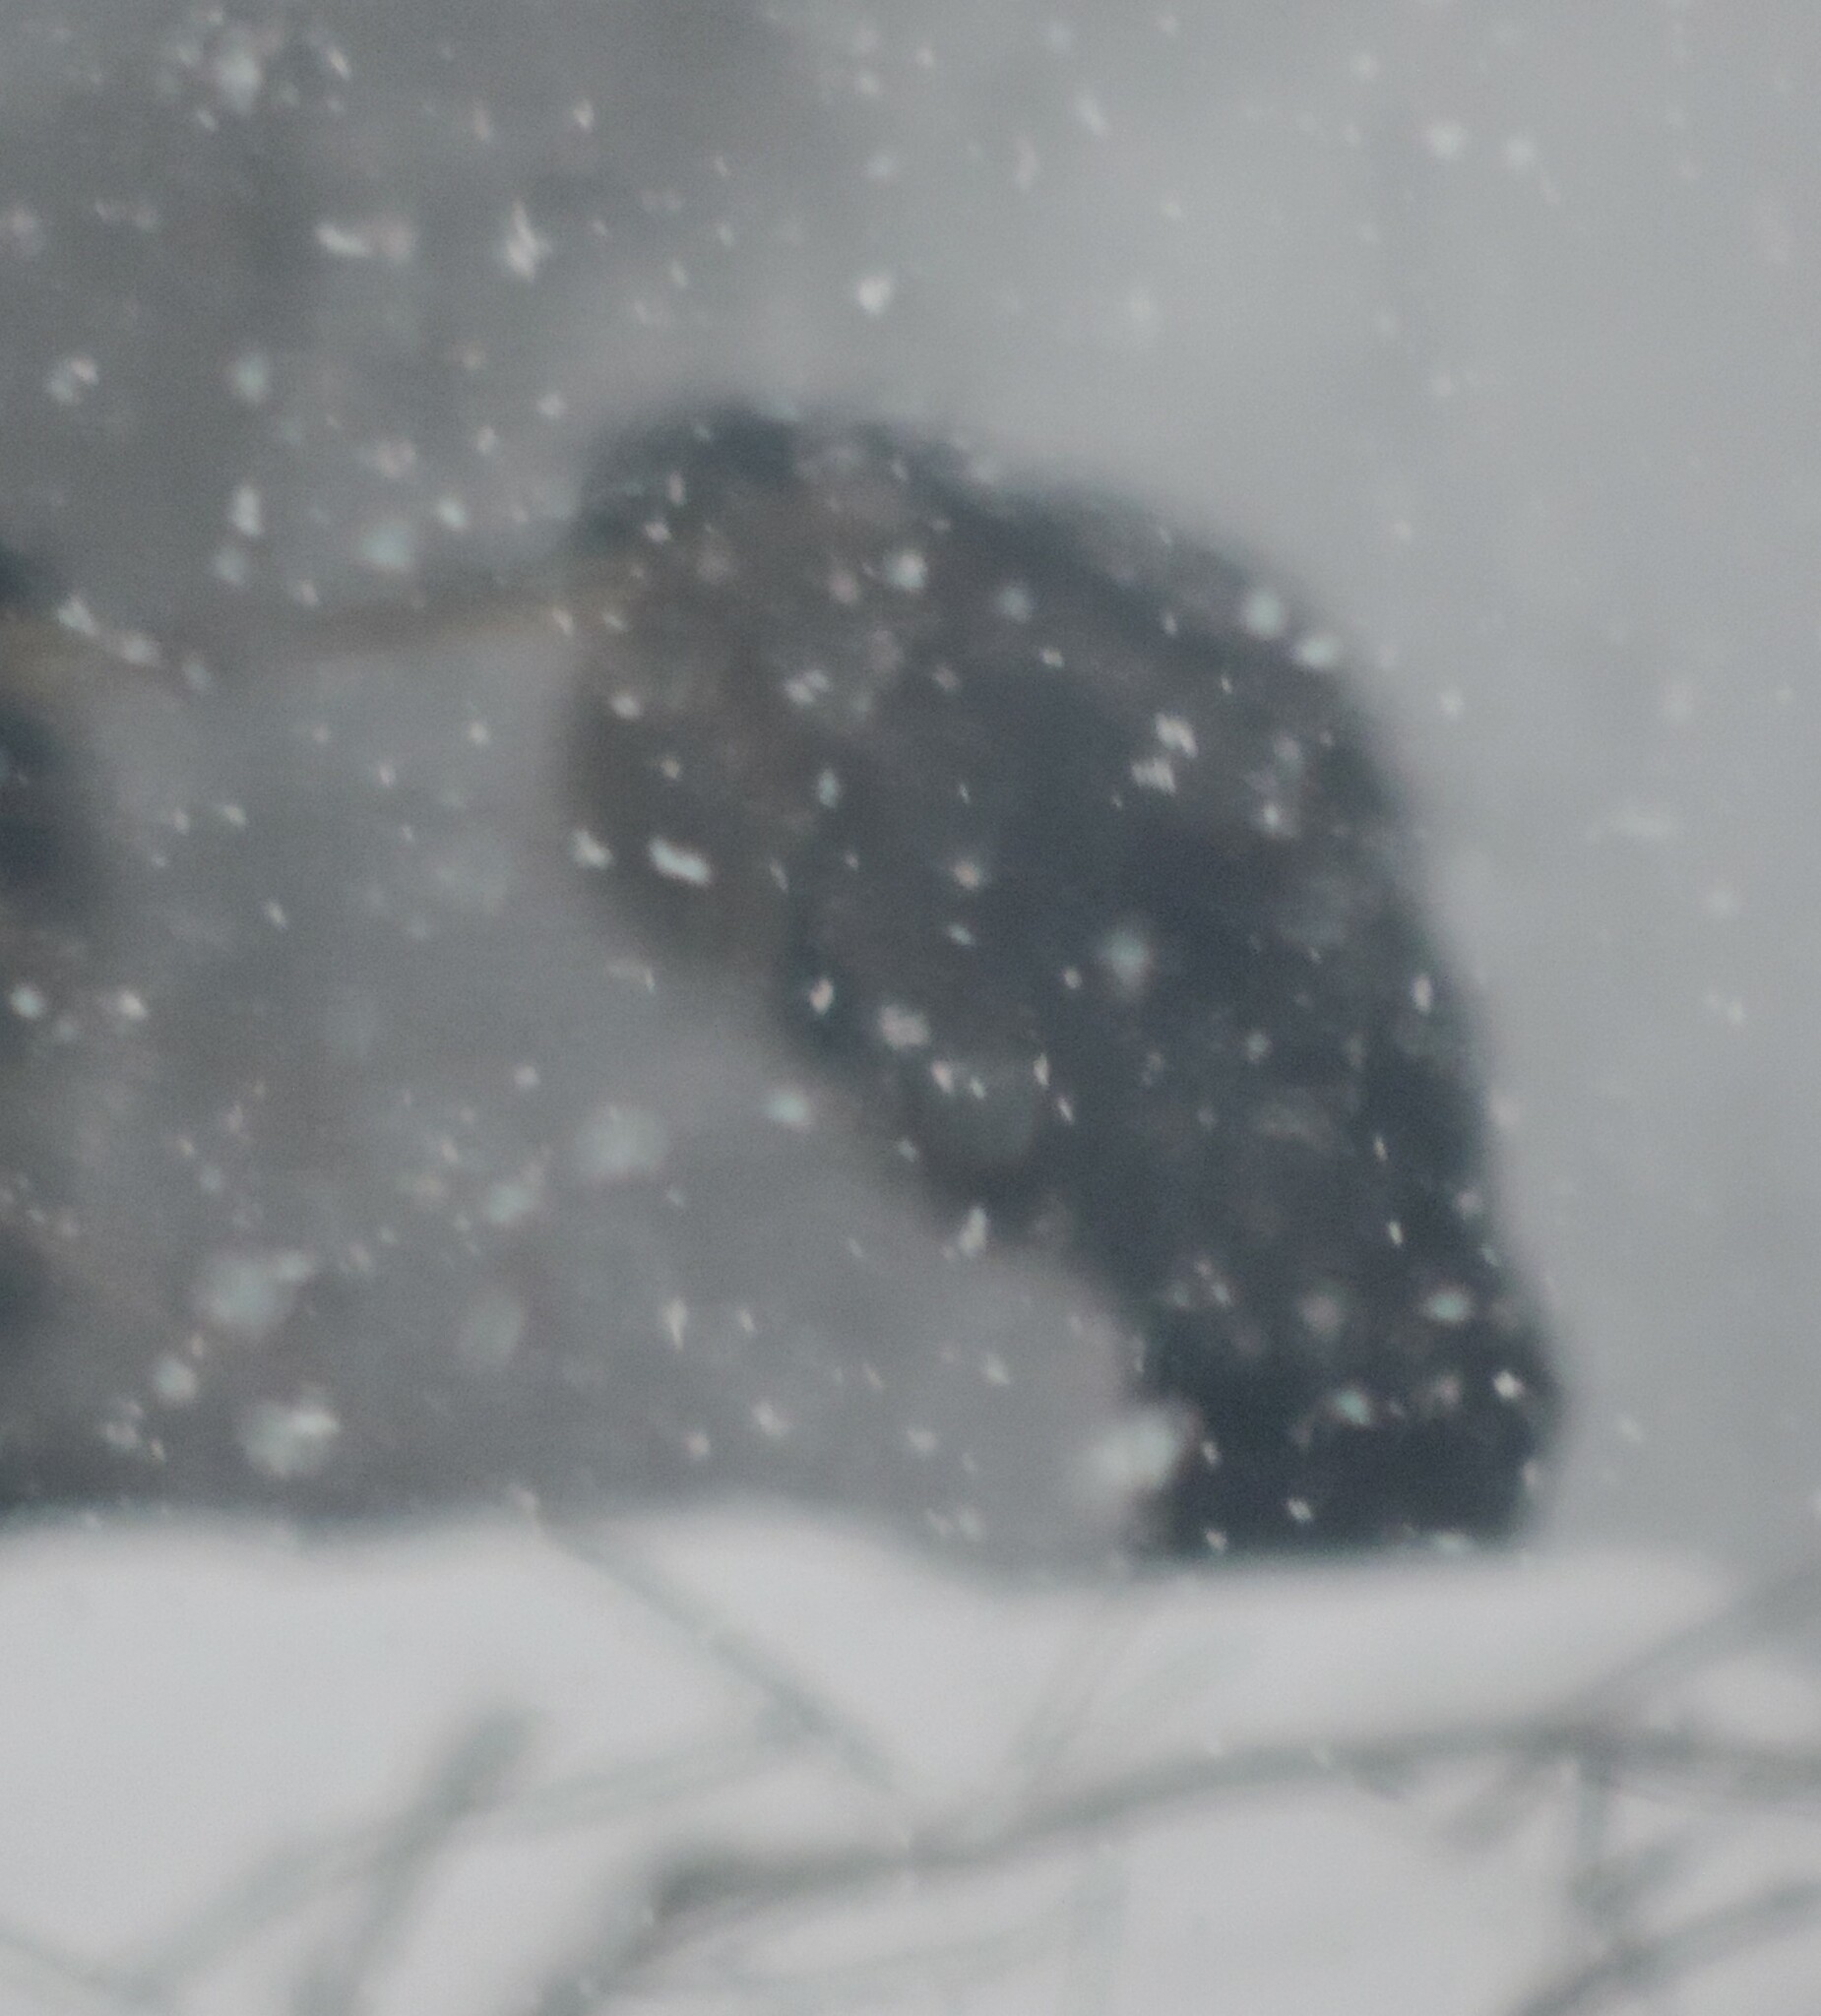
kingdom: Animalia
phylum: Chordata
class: Aves
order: Pelecaniformes
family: Ardeidae
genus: Ardea
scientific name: Ardea herodias
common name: Great blue heron
